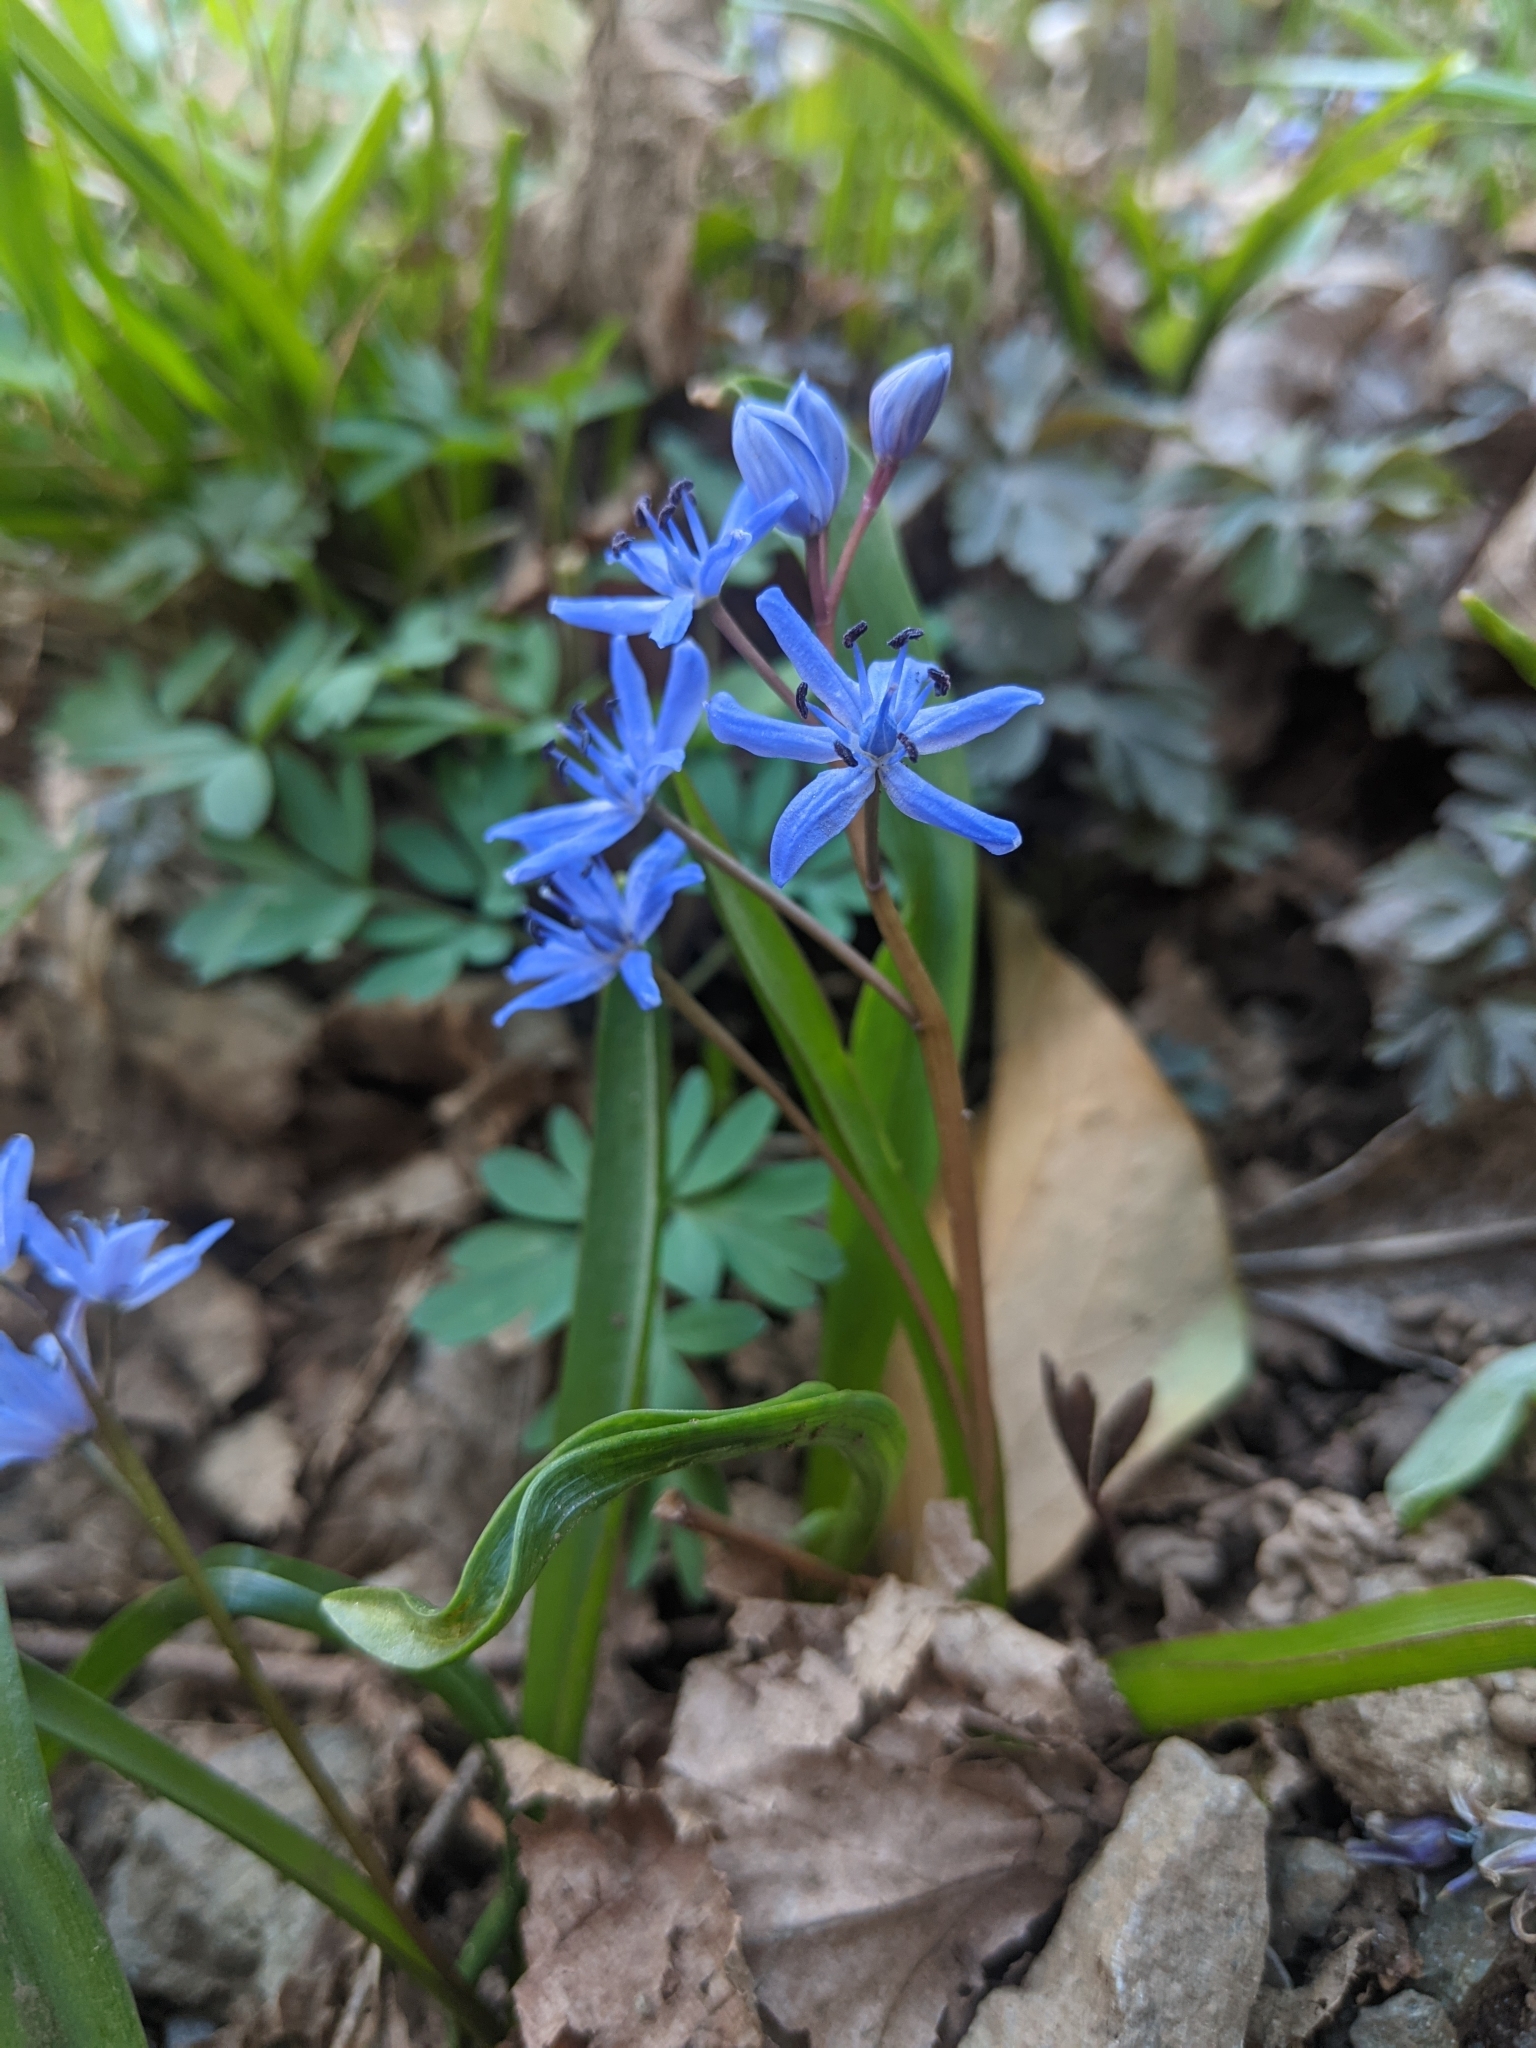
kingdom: Plantae
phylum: Tracheophyta
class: Liliopsida
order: Asparagales
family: Asparagaceae
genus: Scilla
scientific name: Scilla bifolia
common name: Alpine squill
